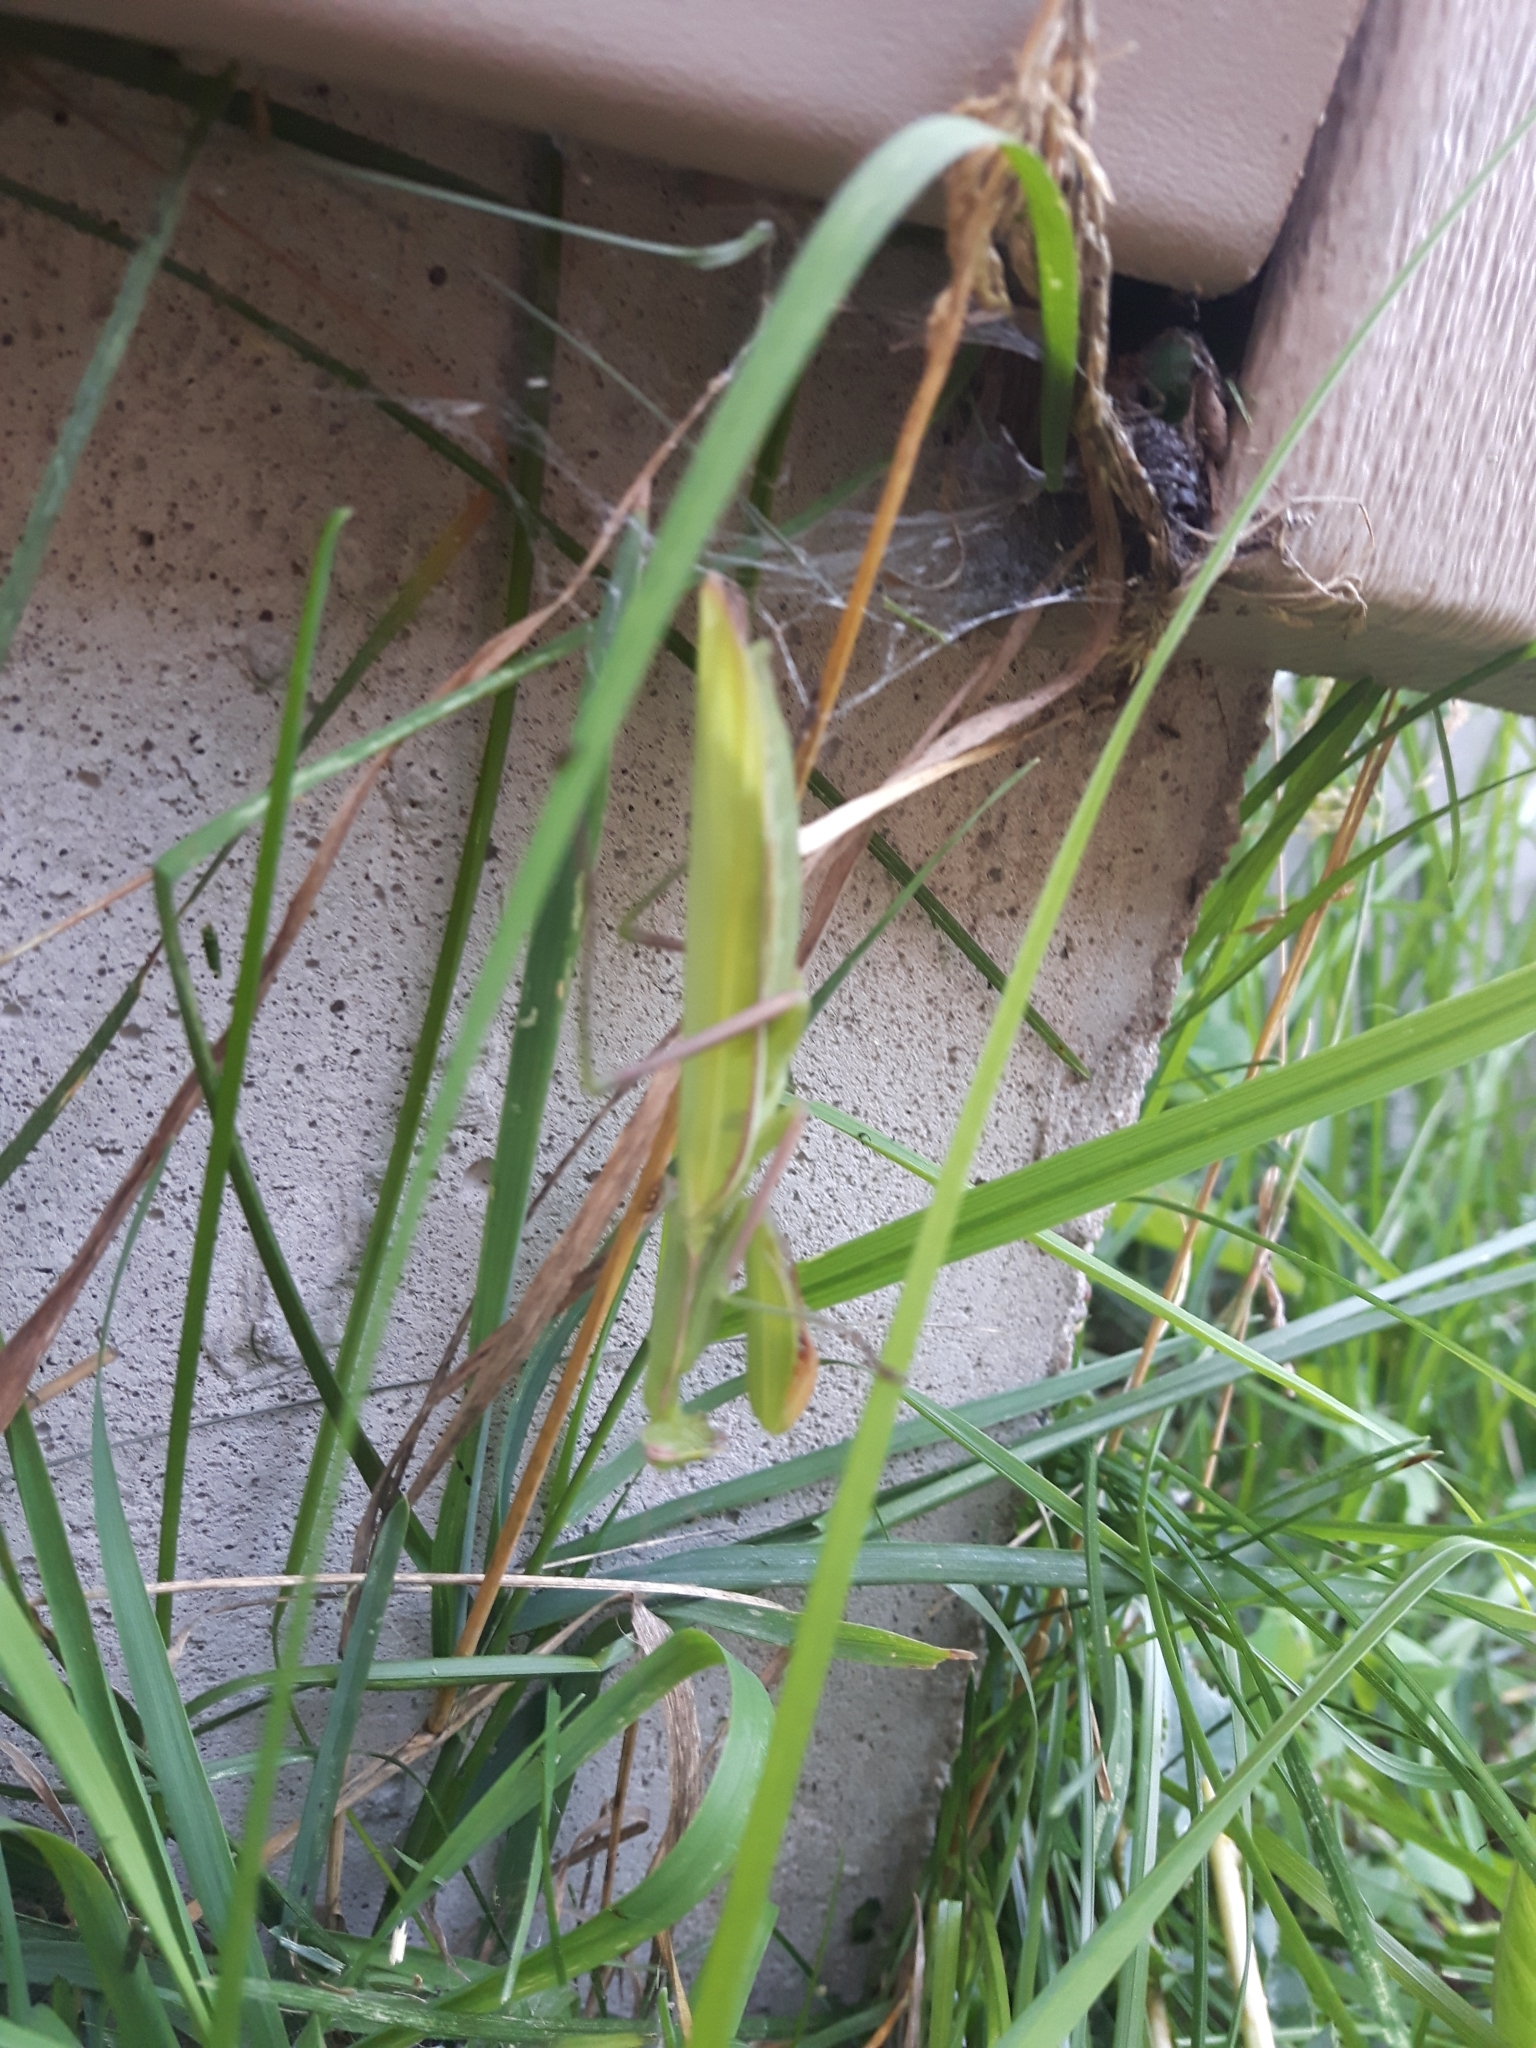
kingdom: Animalia
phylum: Arthropoda
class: Insecta
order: Mantodea
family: Mantidae
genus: Mantis
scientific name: Mantis religiosa
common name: Praying mantis
